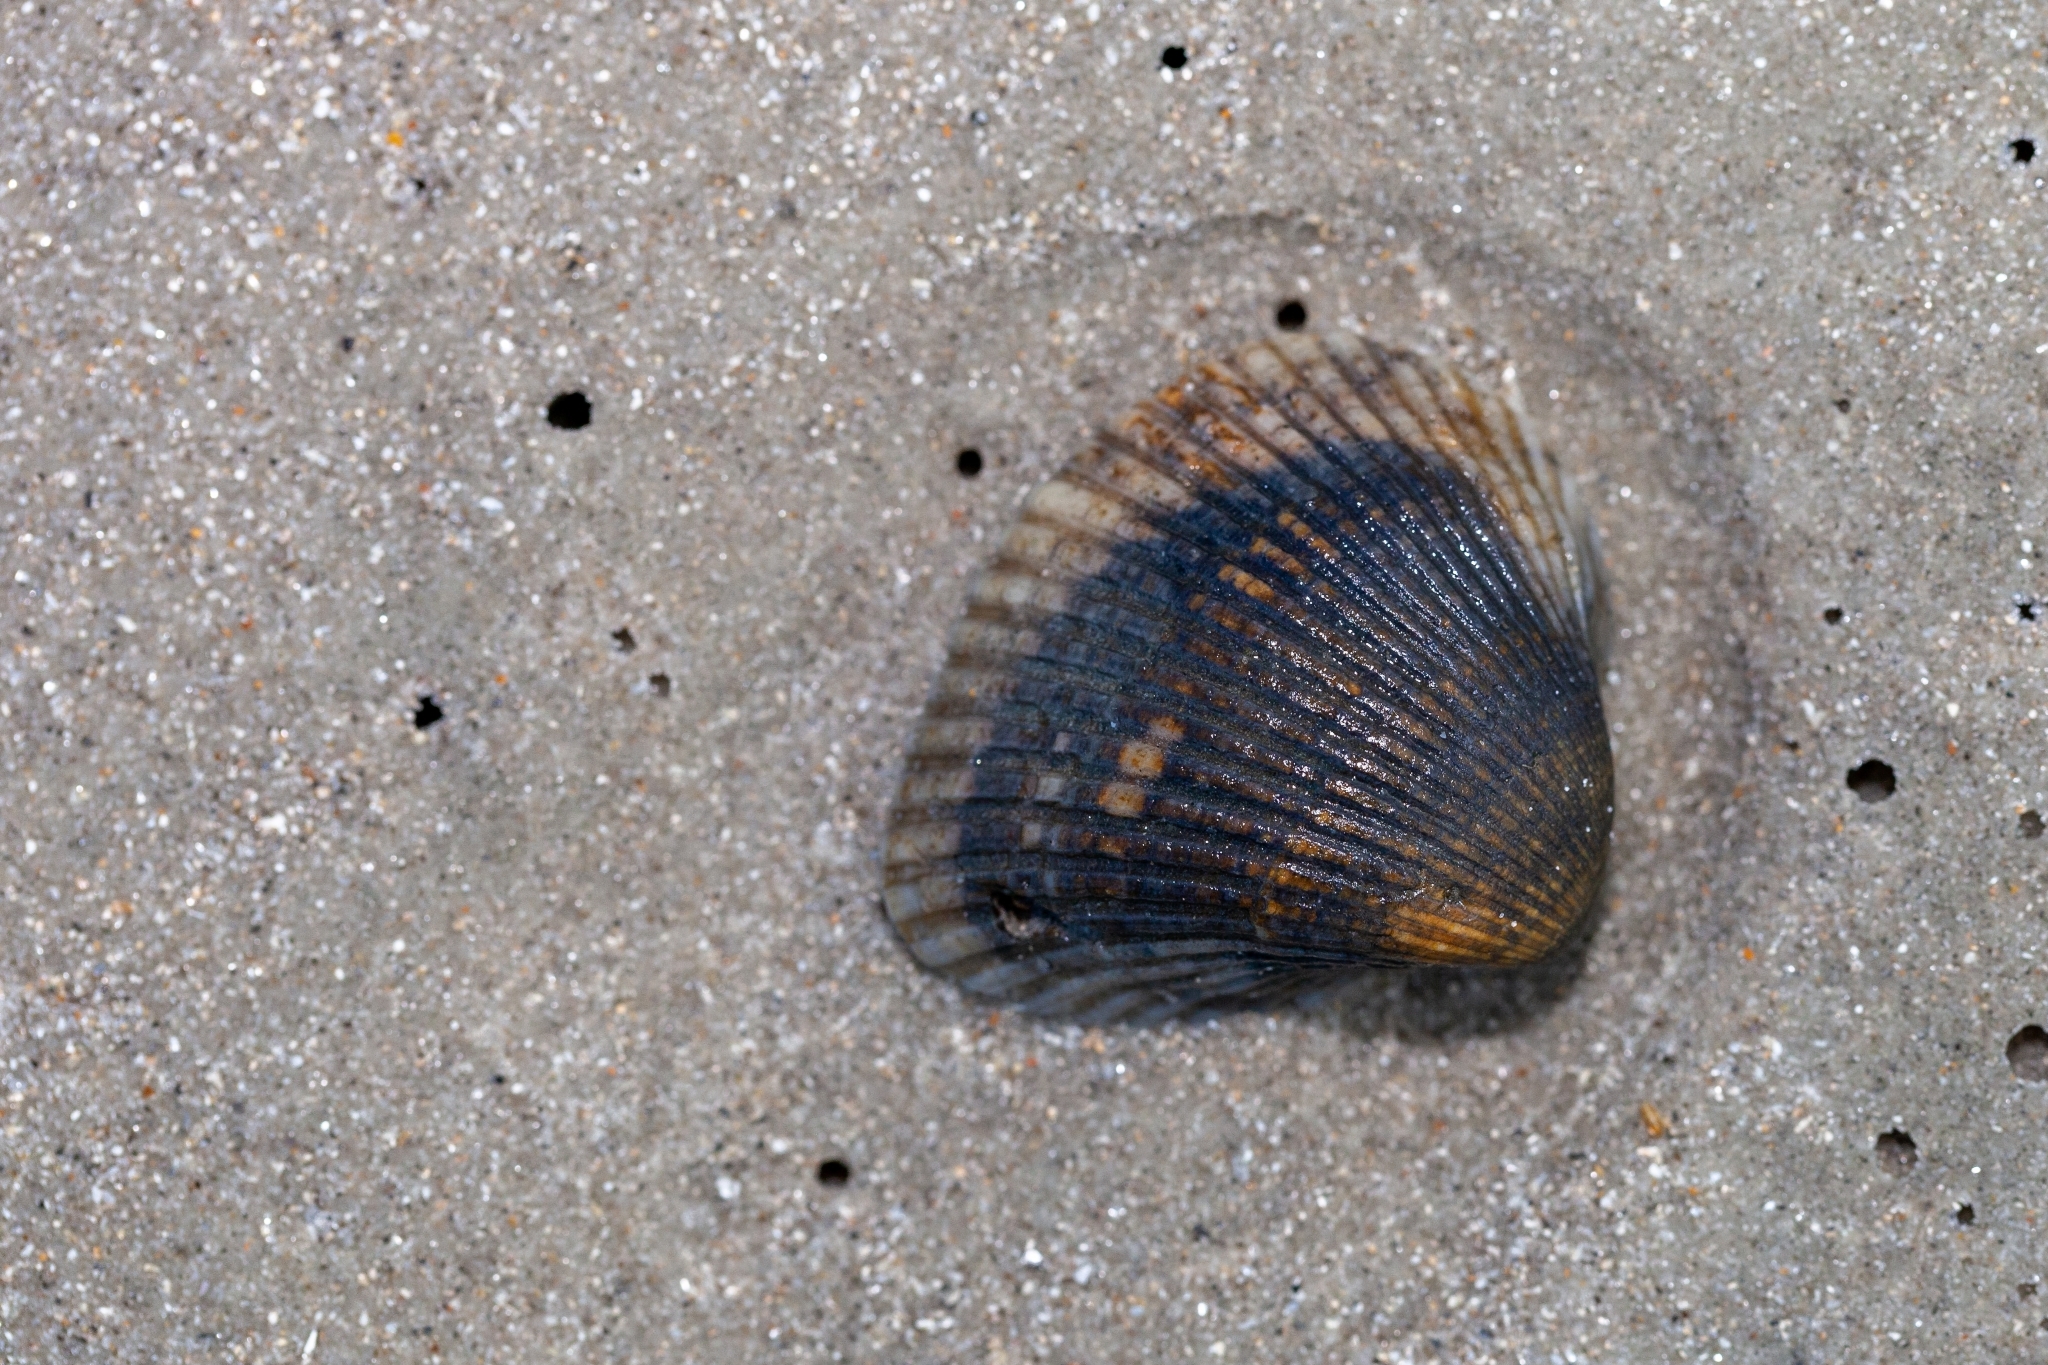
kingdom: Animalia
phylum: Mollusca
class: Bivalvia
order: Arcida
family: Noetiidae
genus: Noetia
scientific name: Noetia ponderosa
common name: Ponderous ark
